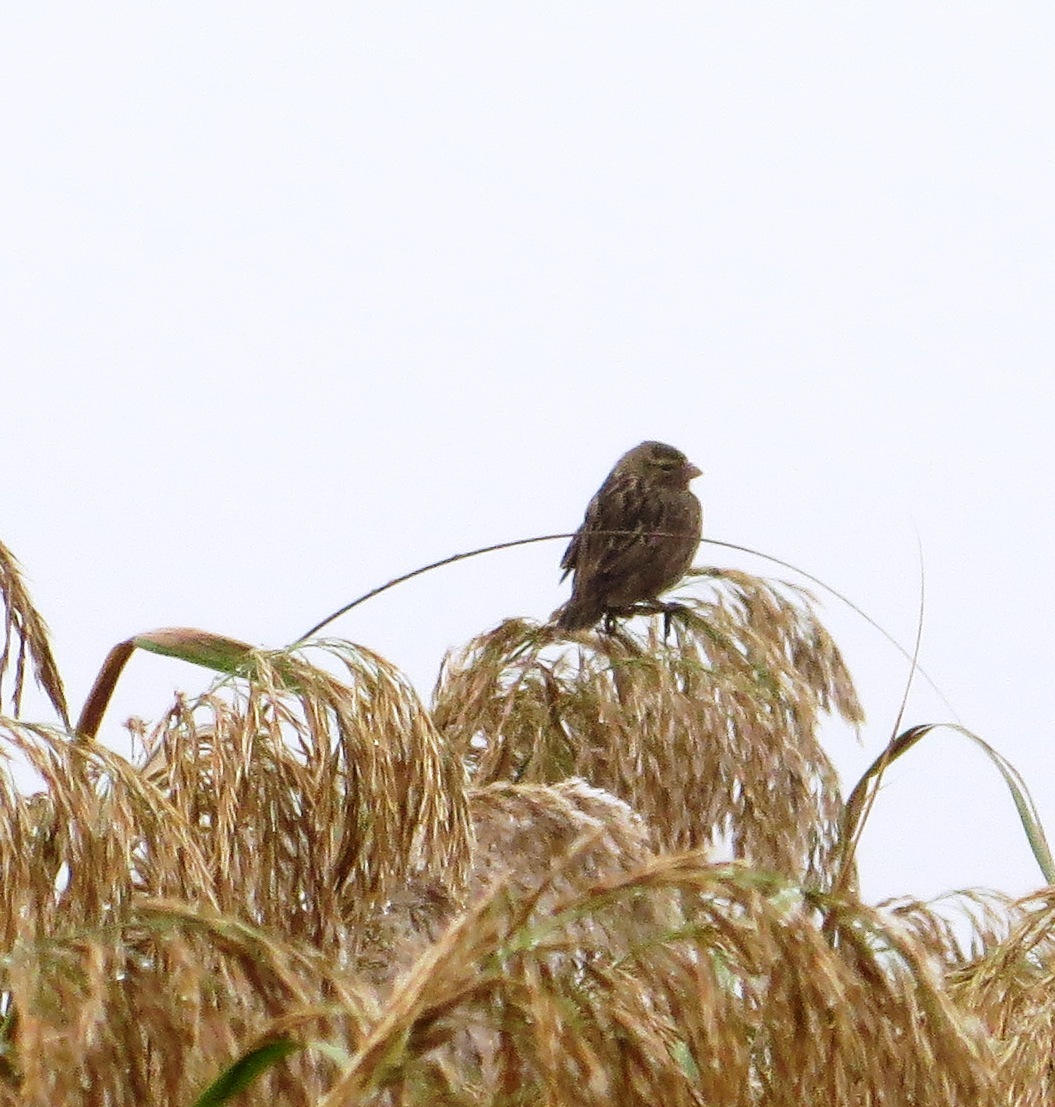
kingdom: Animalia
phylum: Chordata
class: Aves
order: Passeriformes
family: Ploceidae
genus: Euplectes
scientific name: Euplectes capensis
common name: Yellow bishop
